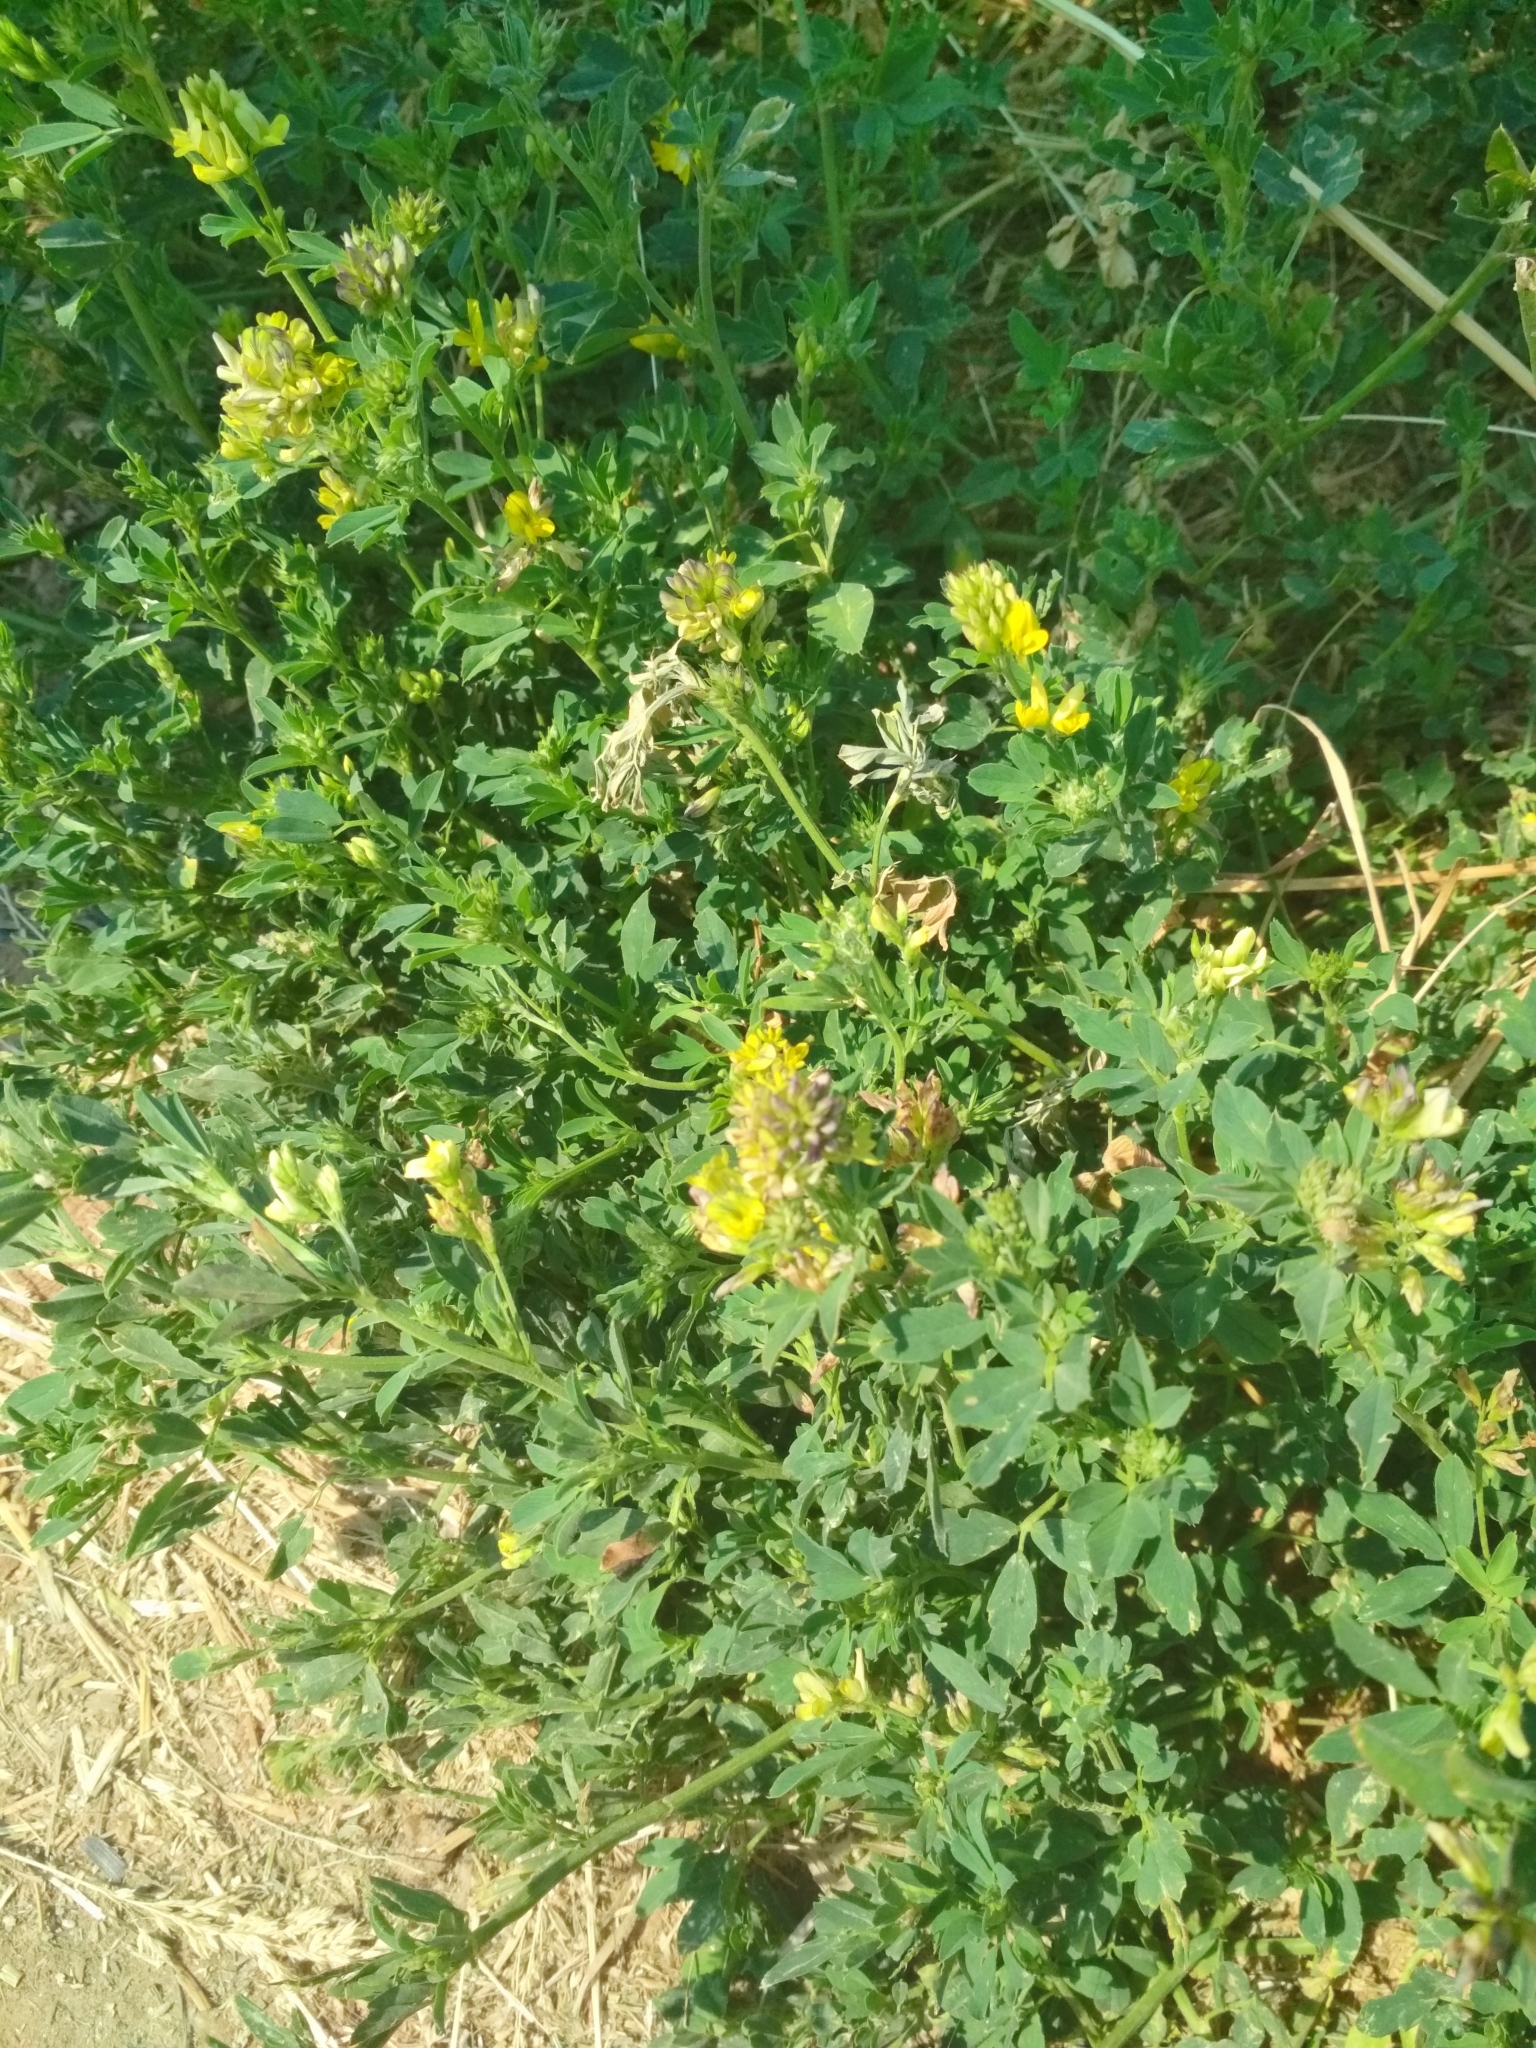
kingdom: Plantae
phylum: Tracheophyta
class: Magnoliopsida
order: Fabales
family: Fabaceae
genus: Medicago
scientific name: Medicago varia
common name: Sand lucerne
